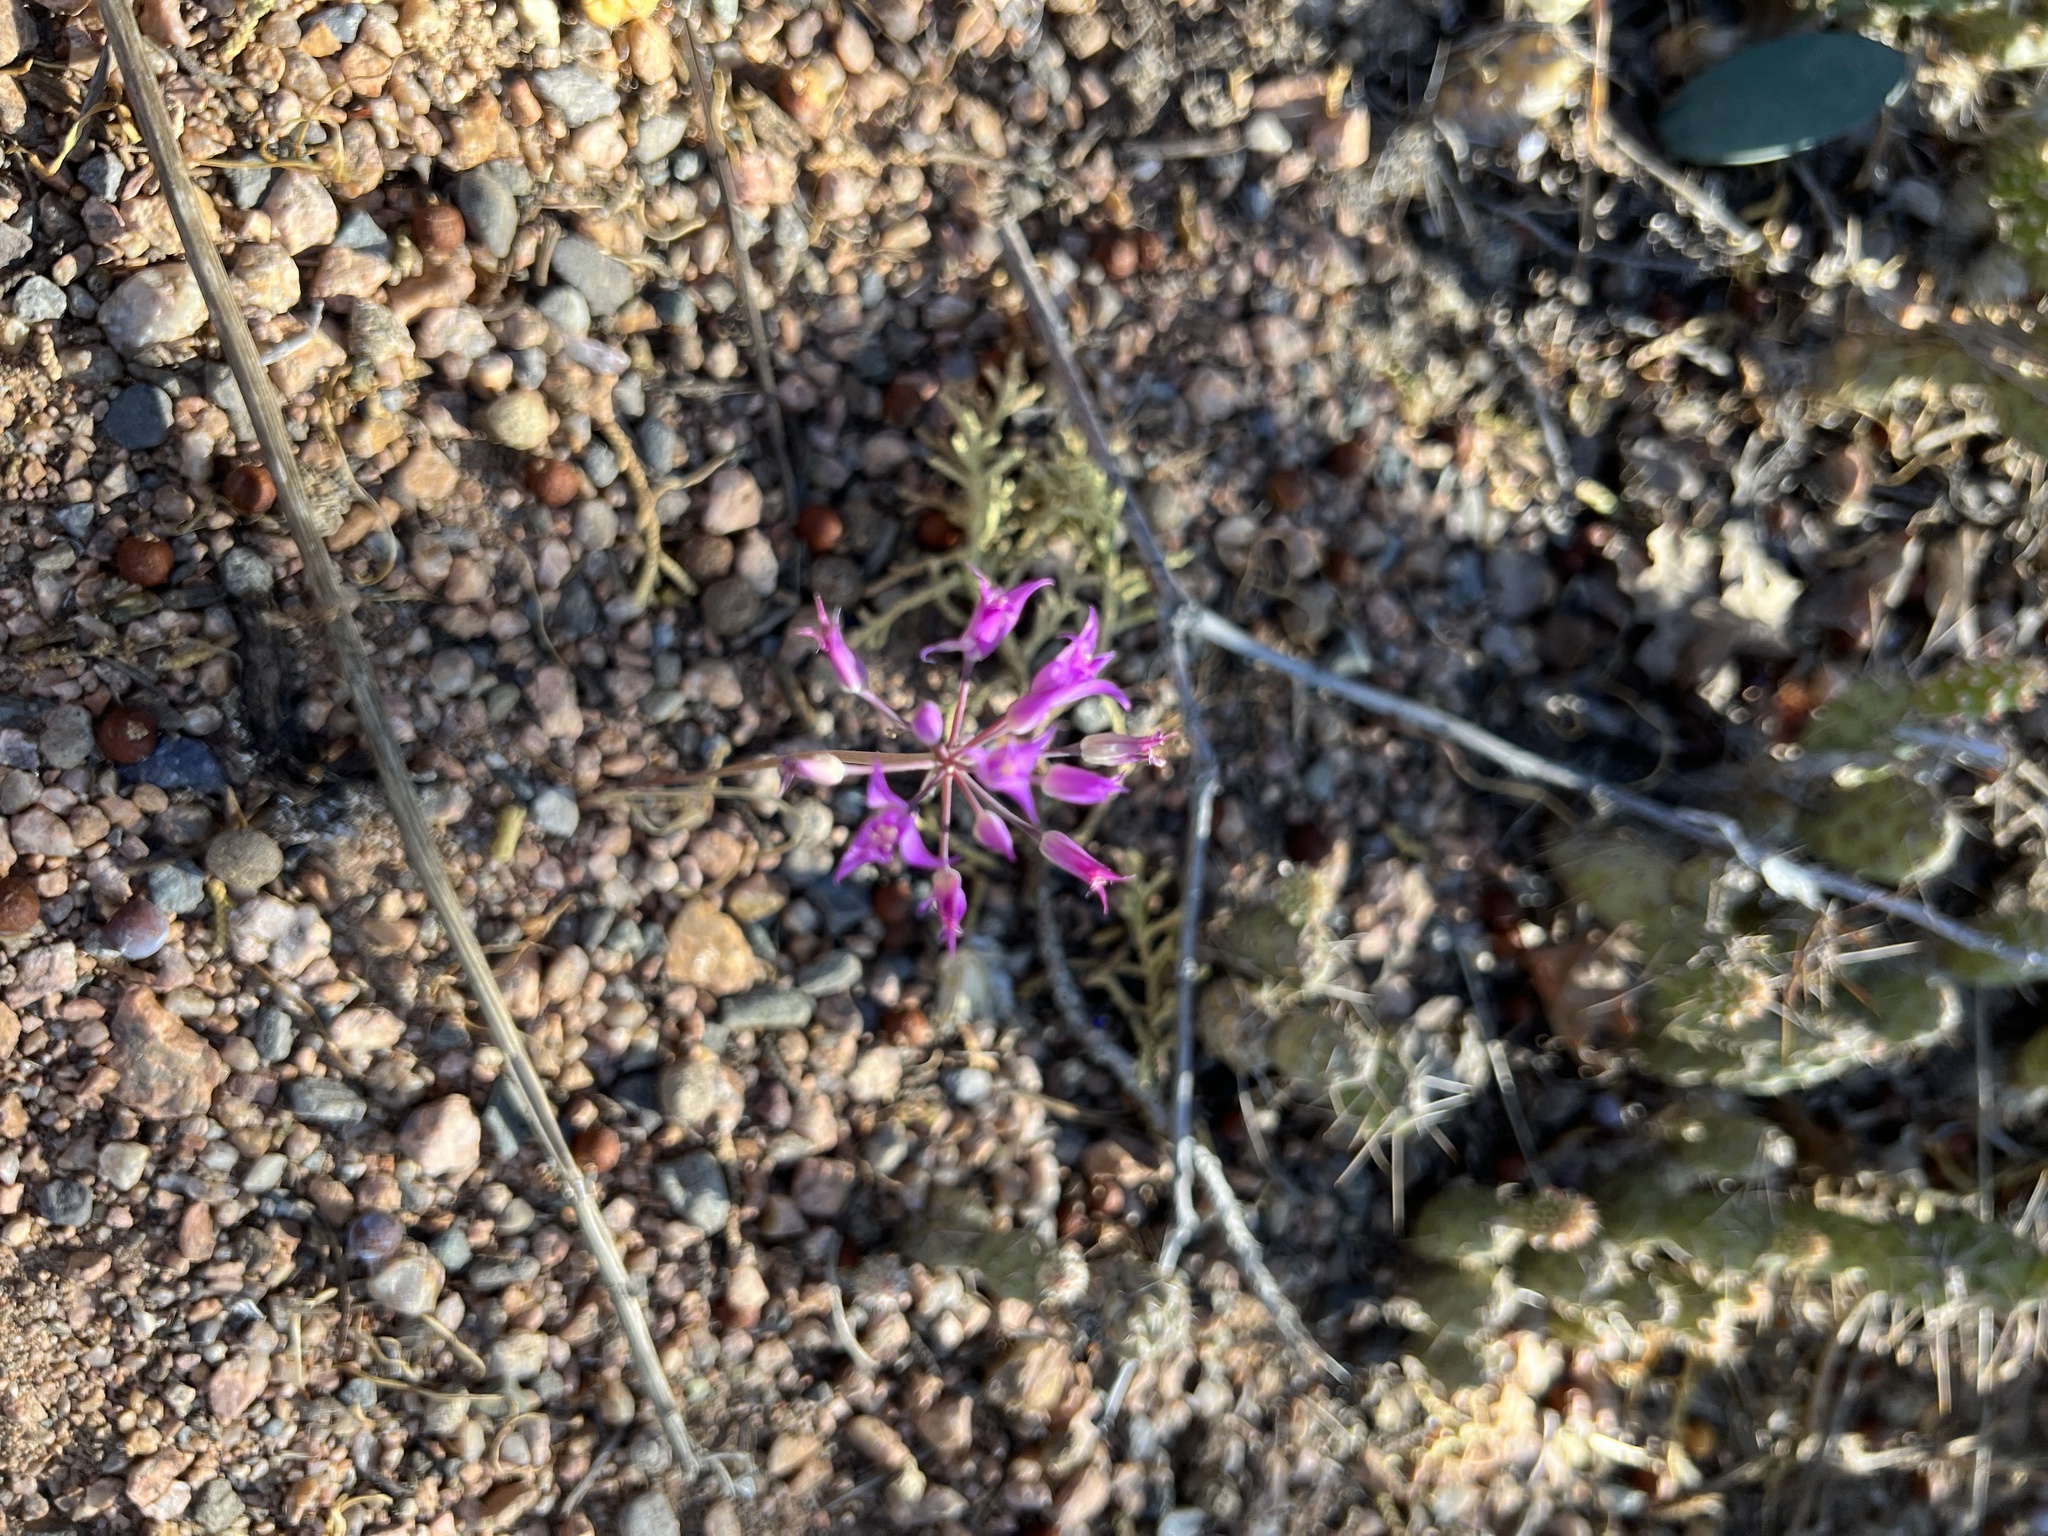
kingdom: Plantae
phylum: Tracheophyta
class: Liliopsida
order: Asparagales
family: Amaryllidaceae
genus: Allium
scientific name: Allium acuminatum
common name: Hooker's onion
